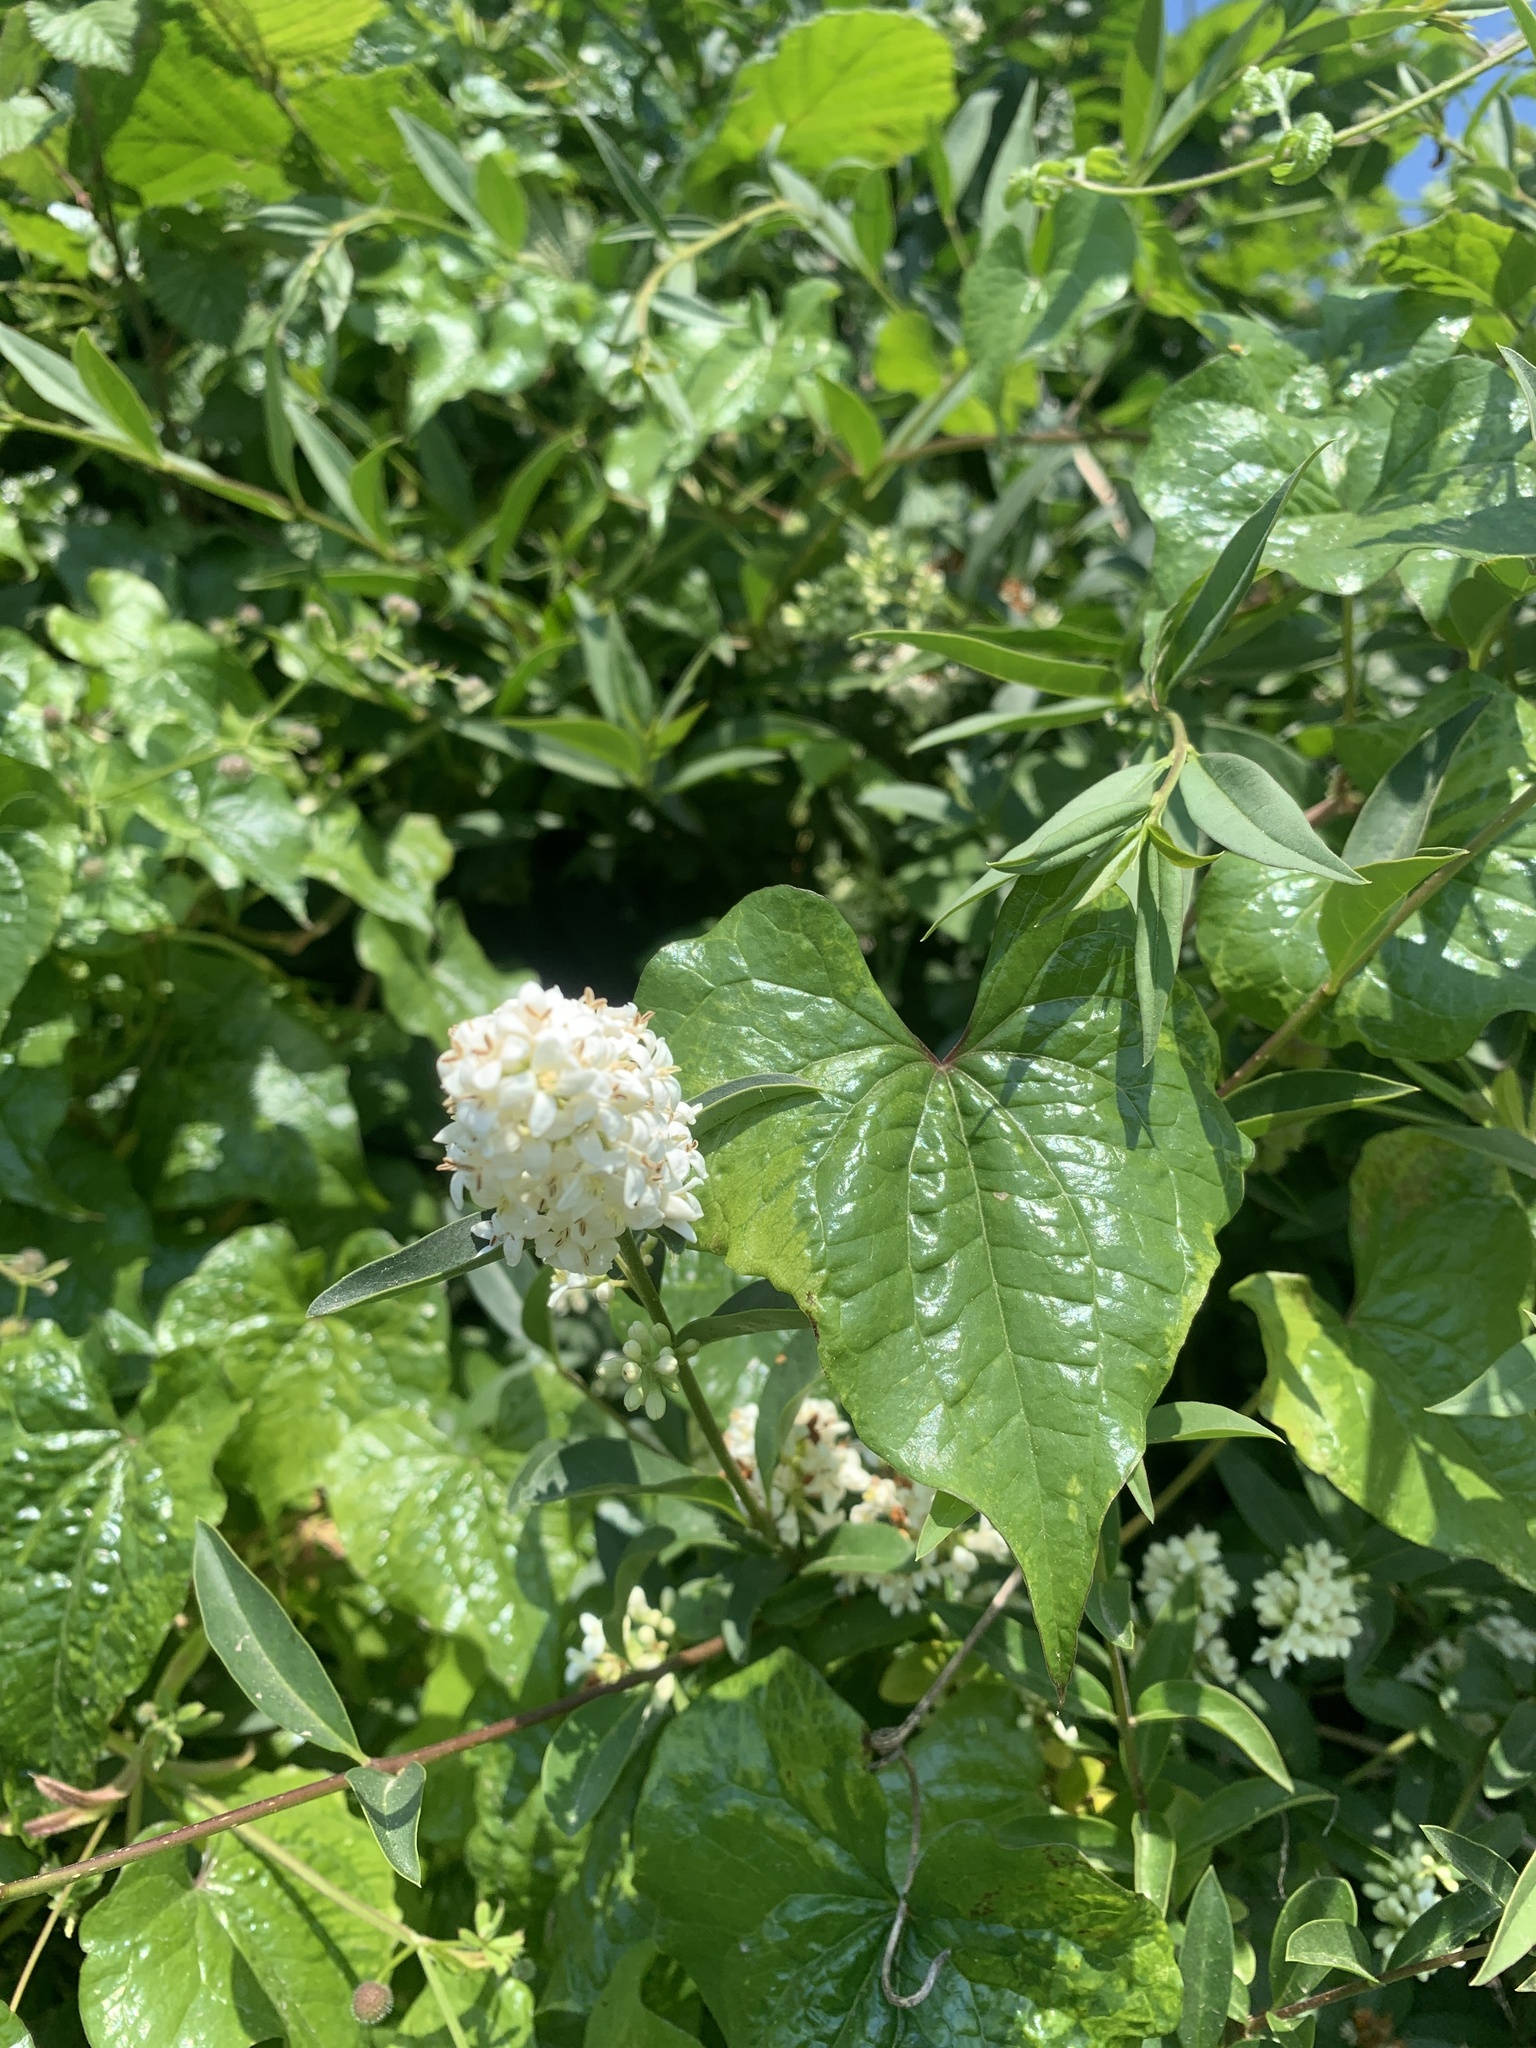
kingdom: Plantae
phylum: Tracheophyta
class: Magnoliopsida
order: Lamiales
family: Oleaceae
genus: Ligustrum
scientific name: Ligustrum vulgare
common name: Wild privet
